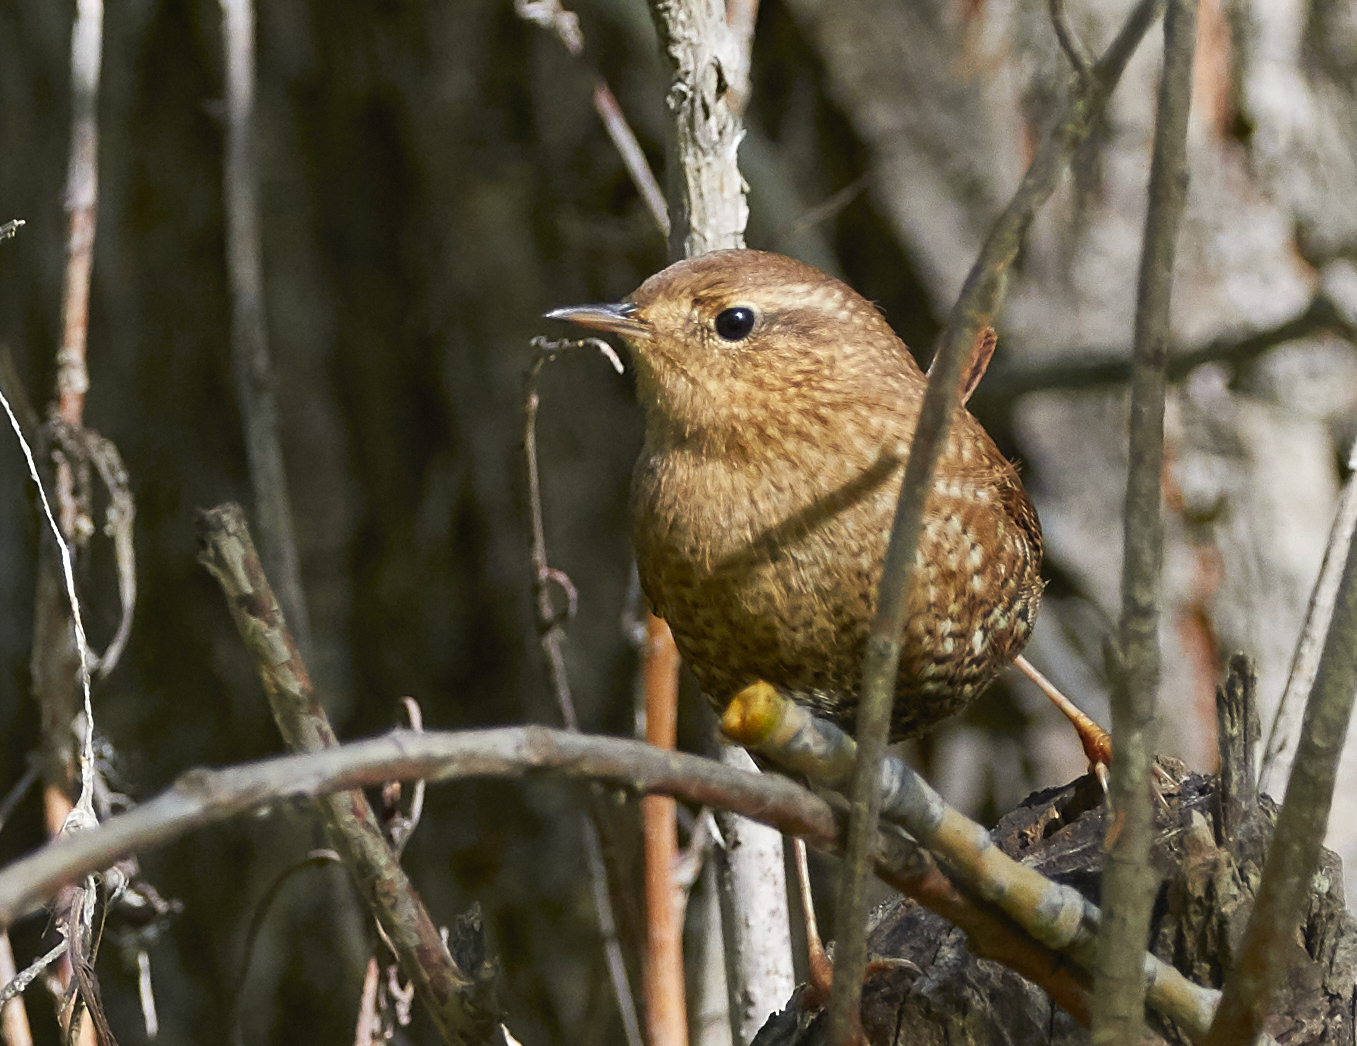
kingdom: Animalia
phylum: Chordata
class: Aves
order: Passeriformes
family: Troglodytidae
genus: Troglodytes
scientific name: Troglodytes hiemalis
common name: Winter wren
